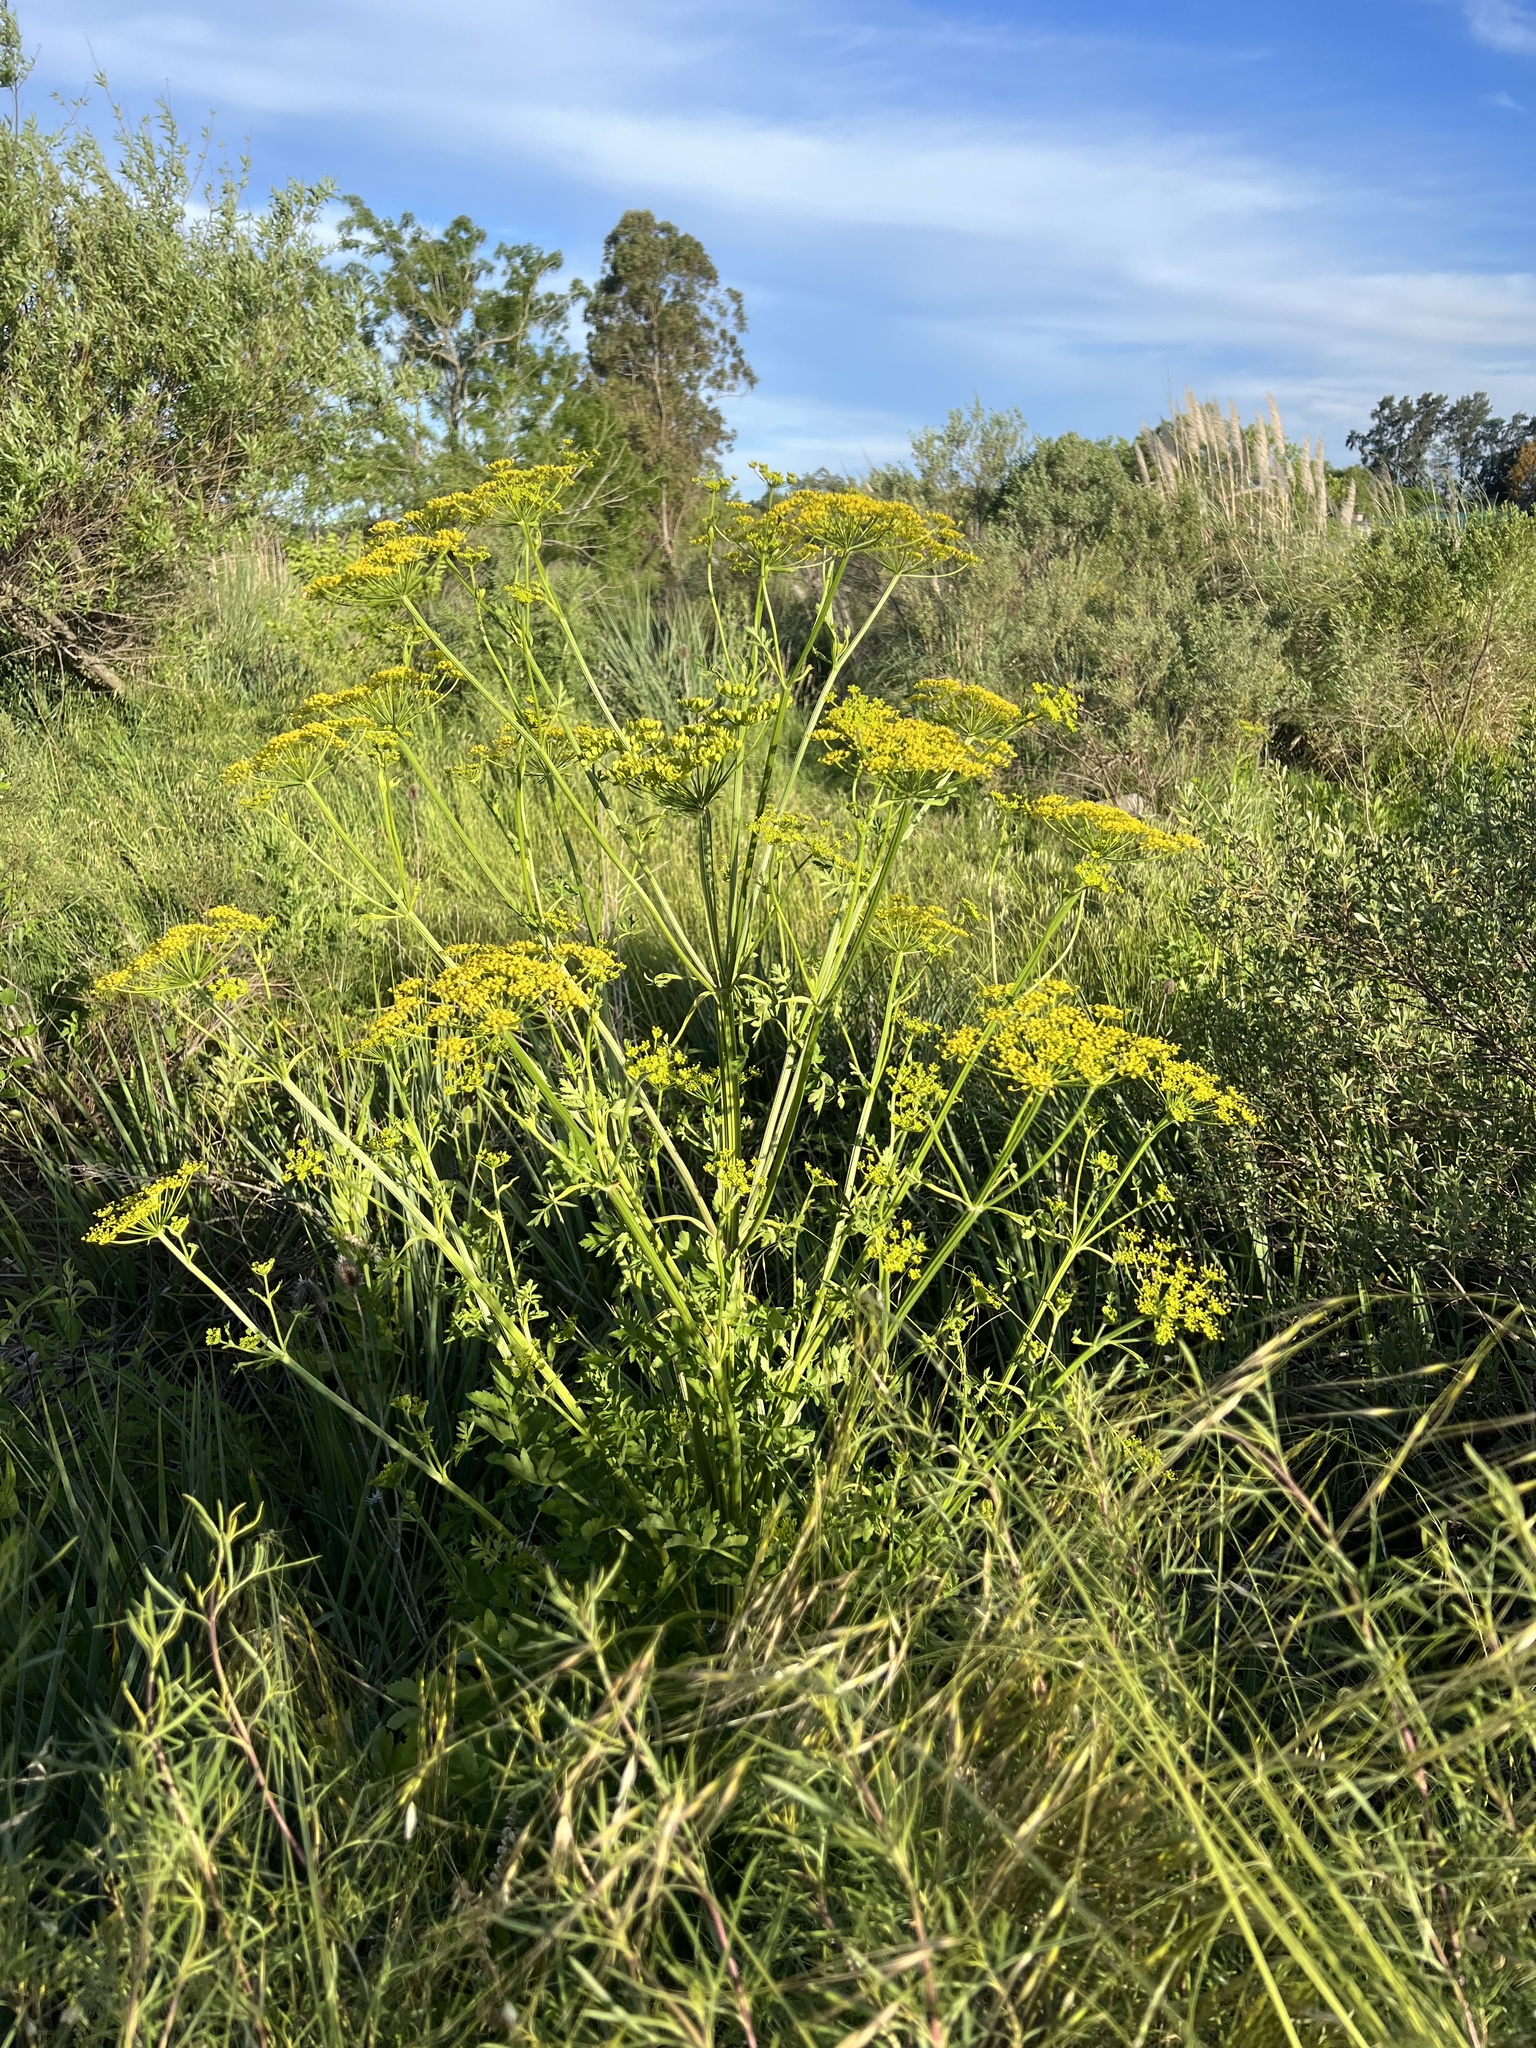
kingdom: Plantae
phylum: Tracheophyta
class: Magnoliopsida
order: Apiales
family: Apiaceae
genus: Pastinaca
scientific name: Pastinaca sativa
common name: Wild parsnip
